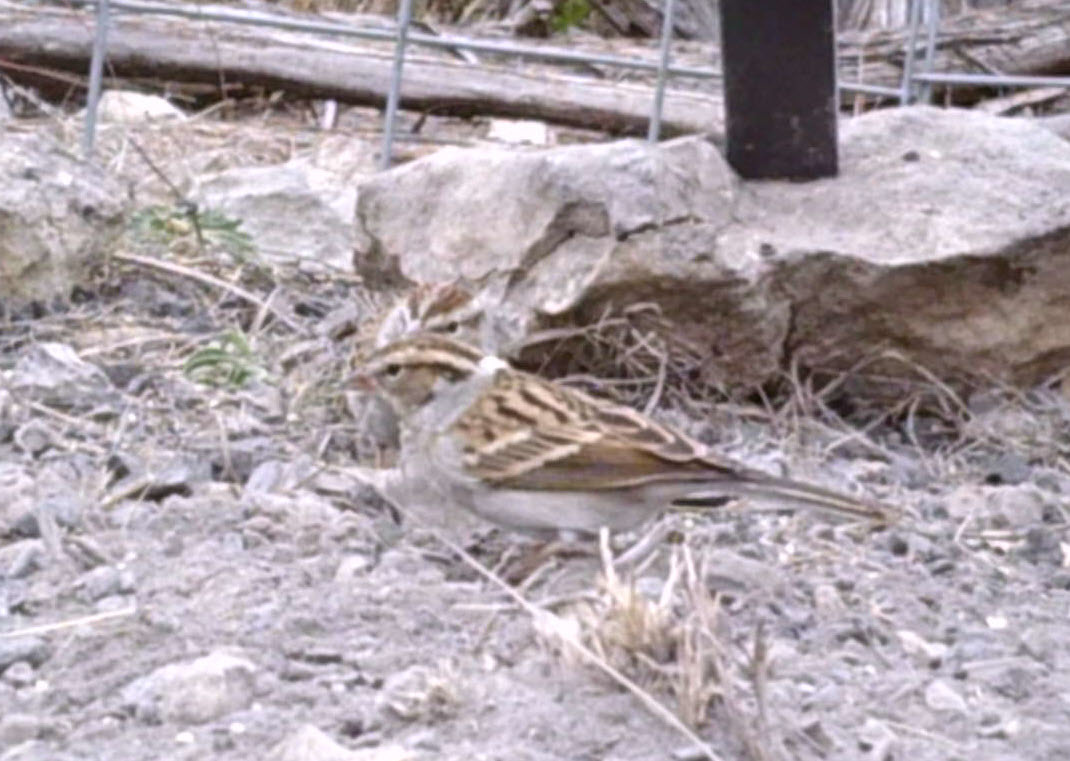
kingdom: Animalia
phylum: Chordata
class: Aves
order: Passeriformes
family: Passerellidae
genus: Spizella
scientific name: Spizella passerina
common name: Chipping sparrow
